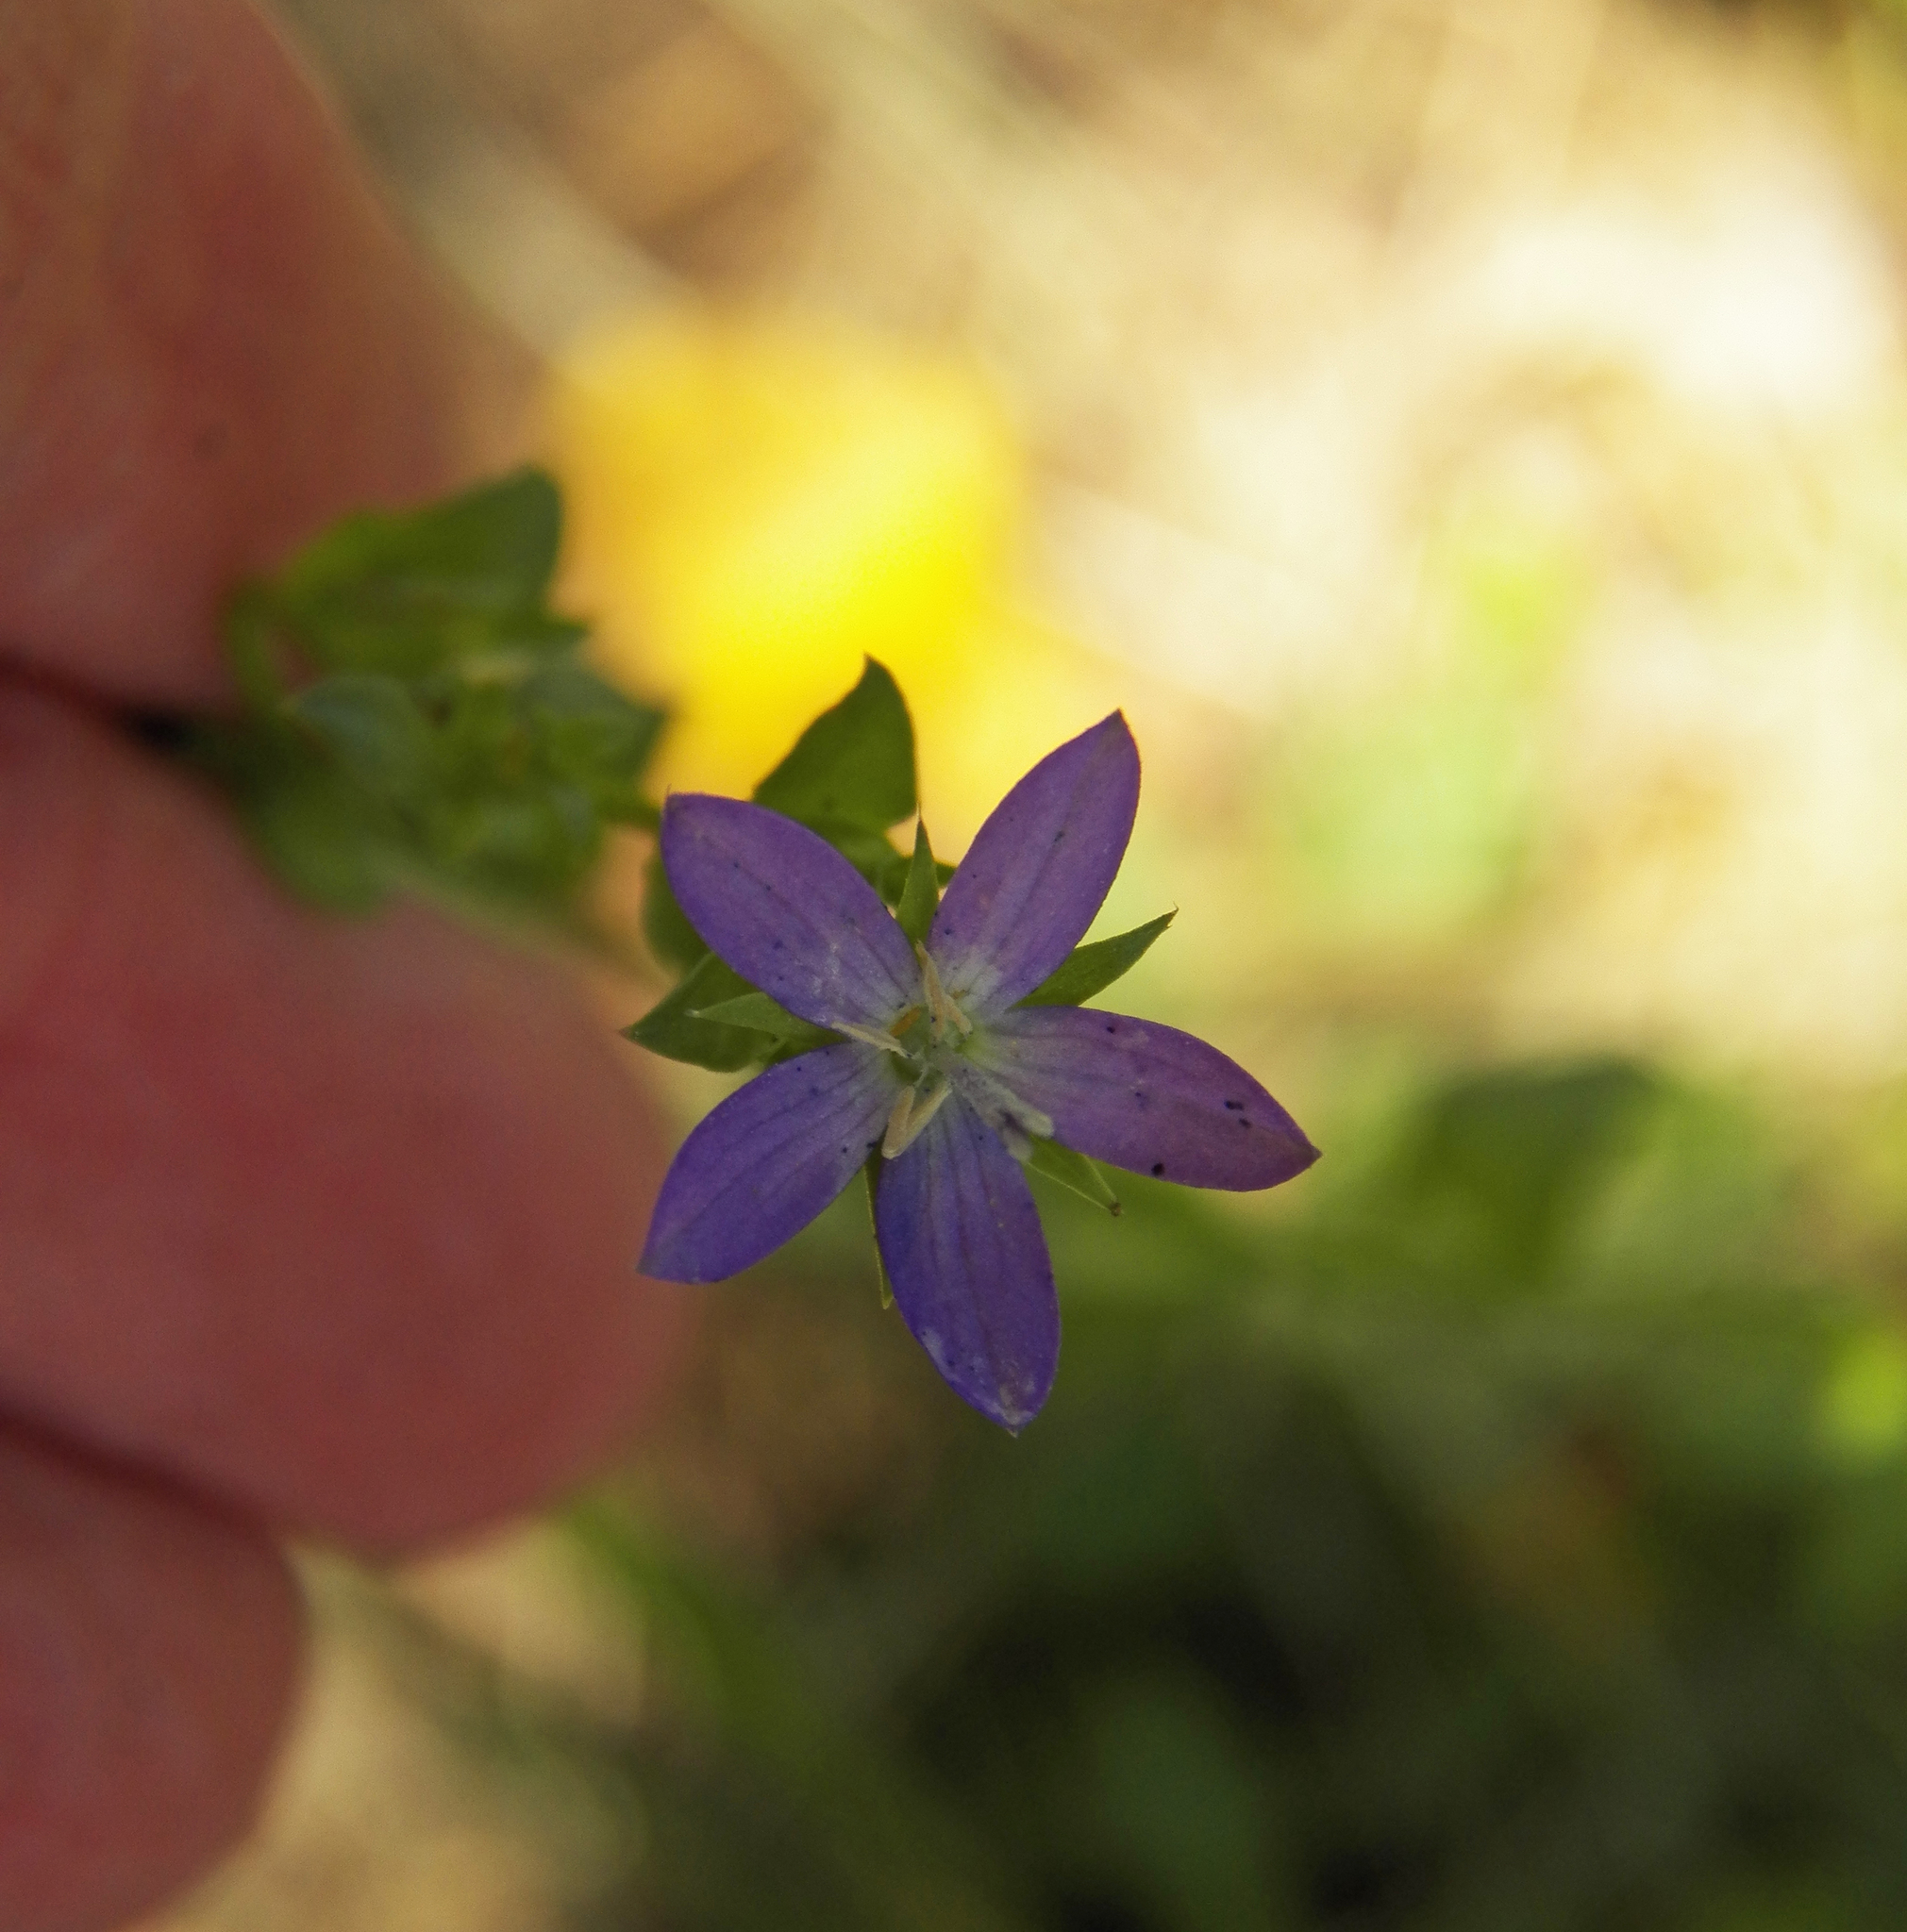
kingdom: Plantae
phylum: Tracheophyta
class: Magnoliopsida
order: Asterales
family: Campanulaceae
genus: Triodanis
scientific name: Triodanis
